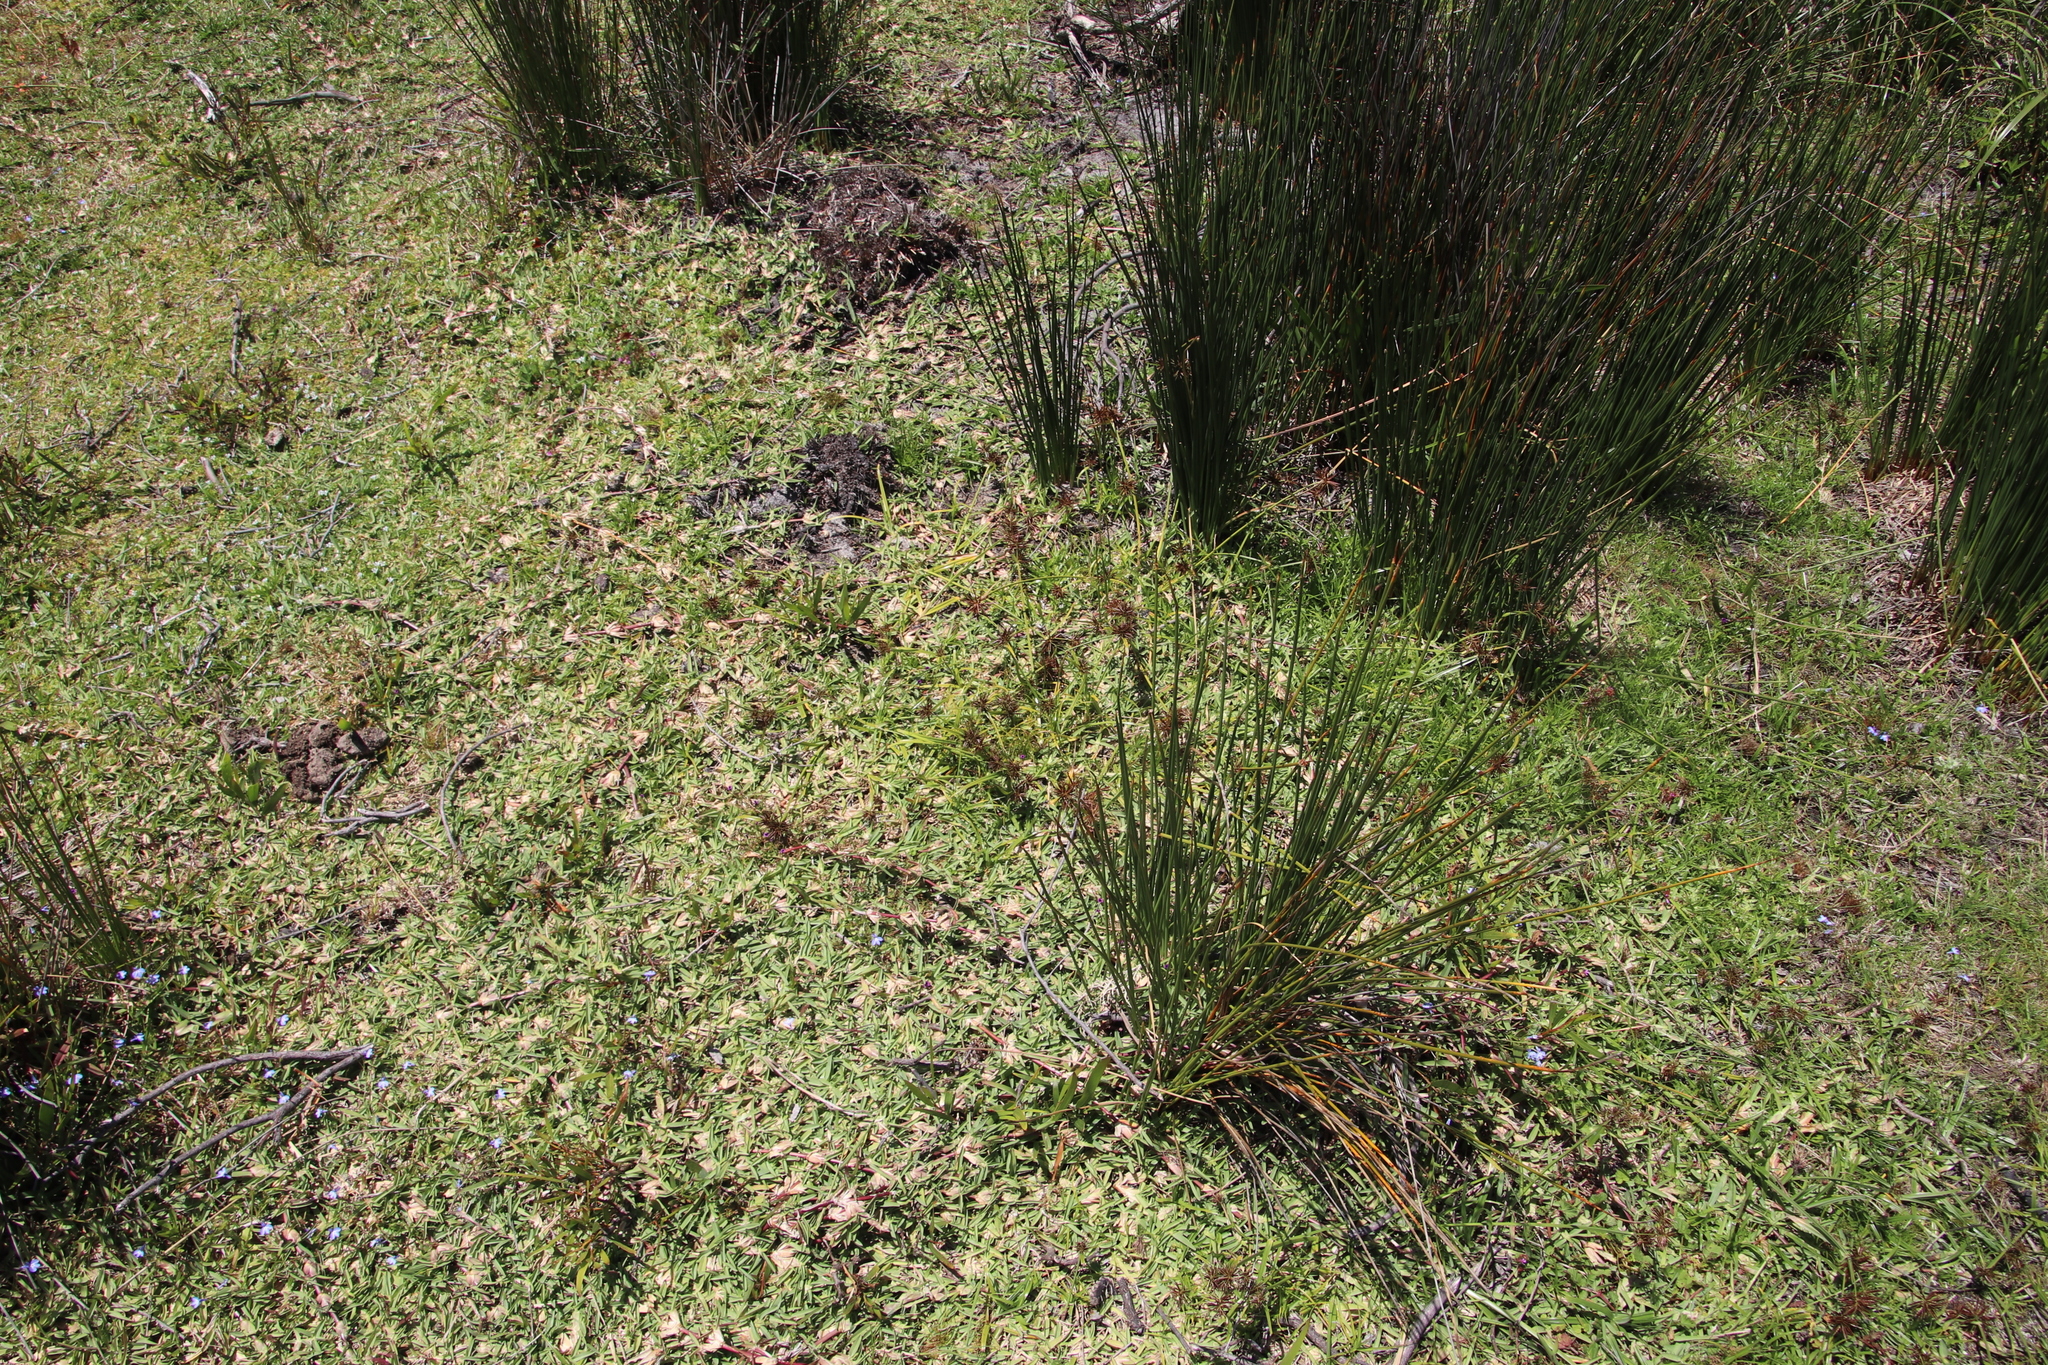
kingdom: Plantae
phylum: Tracheophyta
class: Liliopsida
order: Poales
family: Poaceae
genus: Stenotaphrum
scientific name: Stenotaphrum secundatum
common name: St. augustine grass
